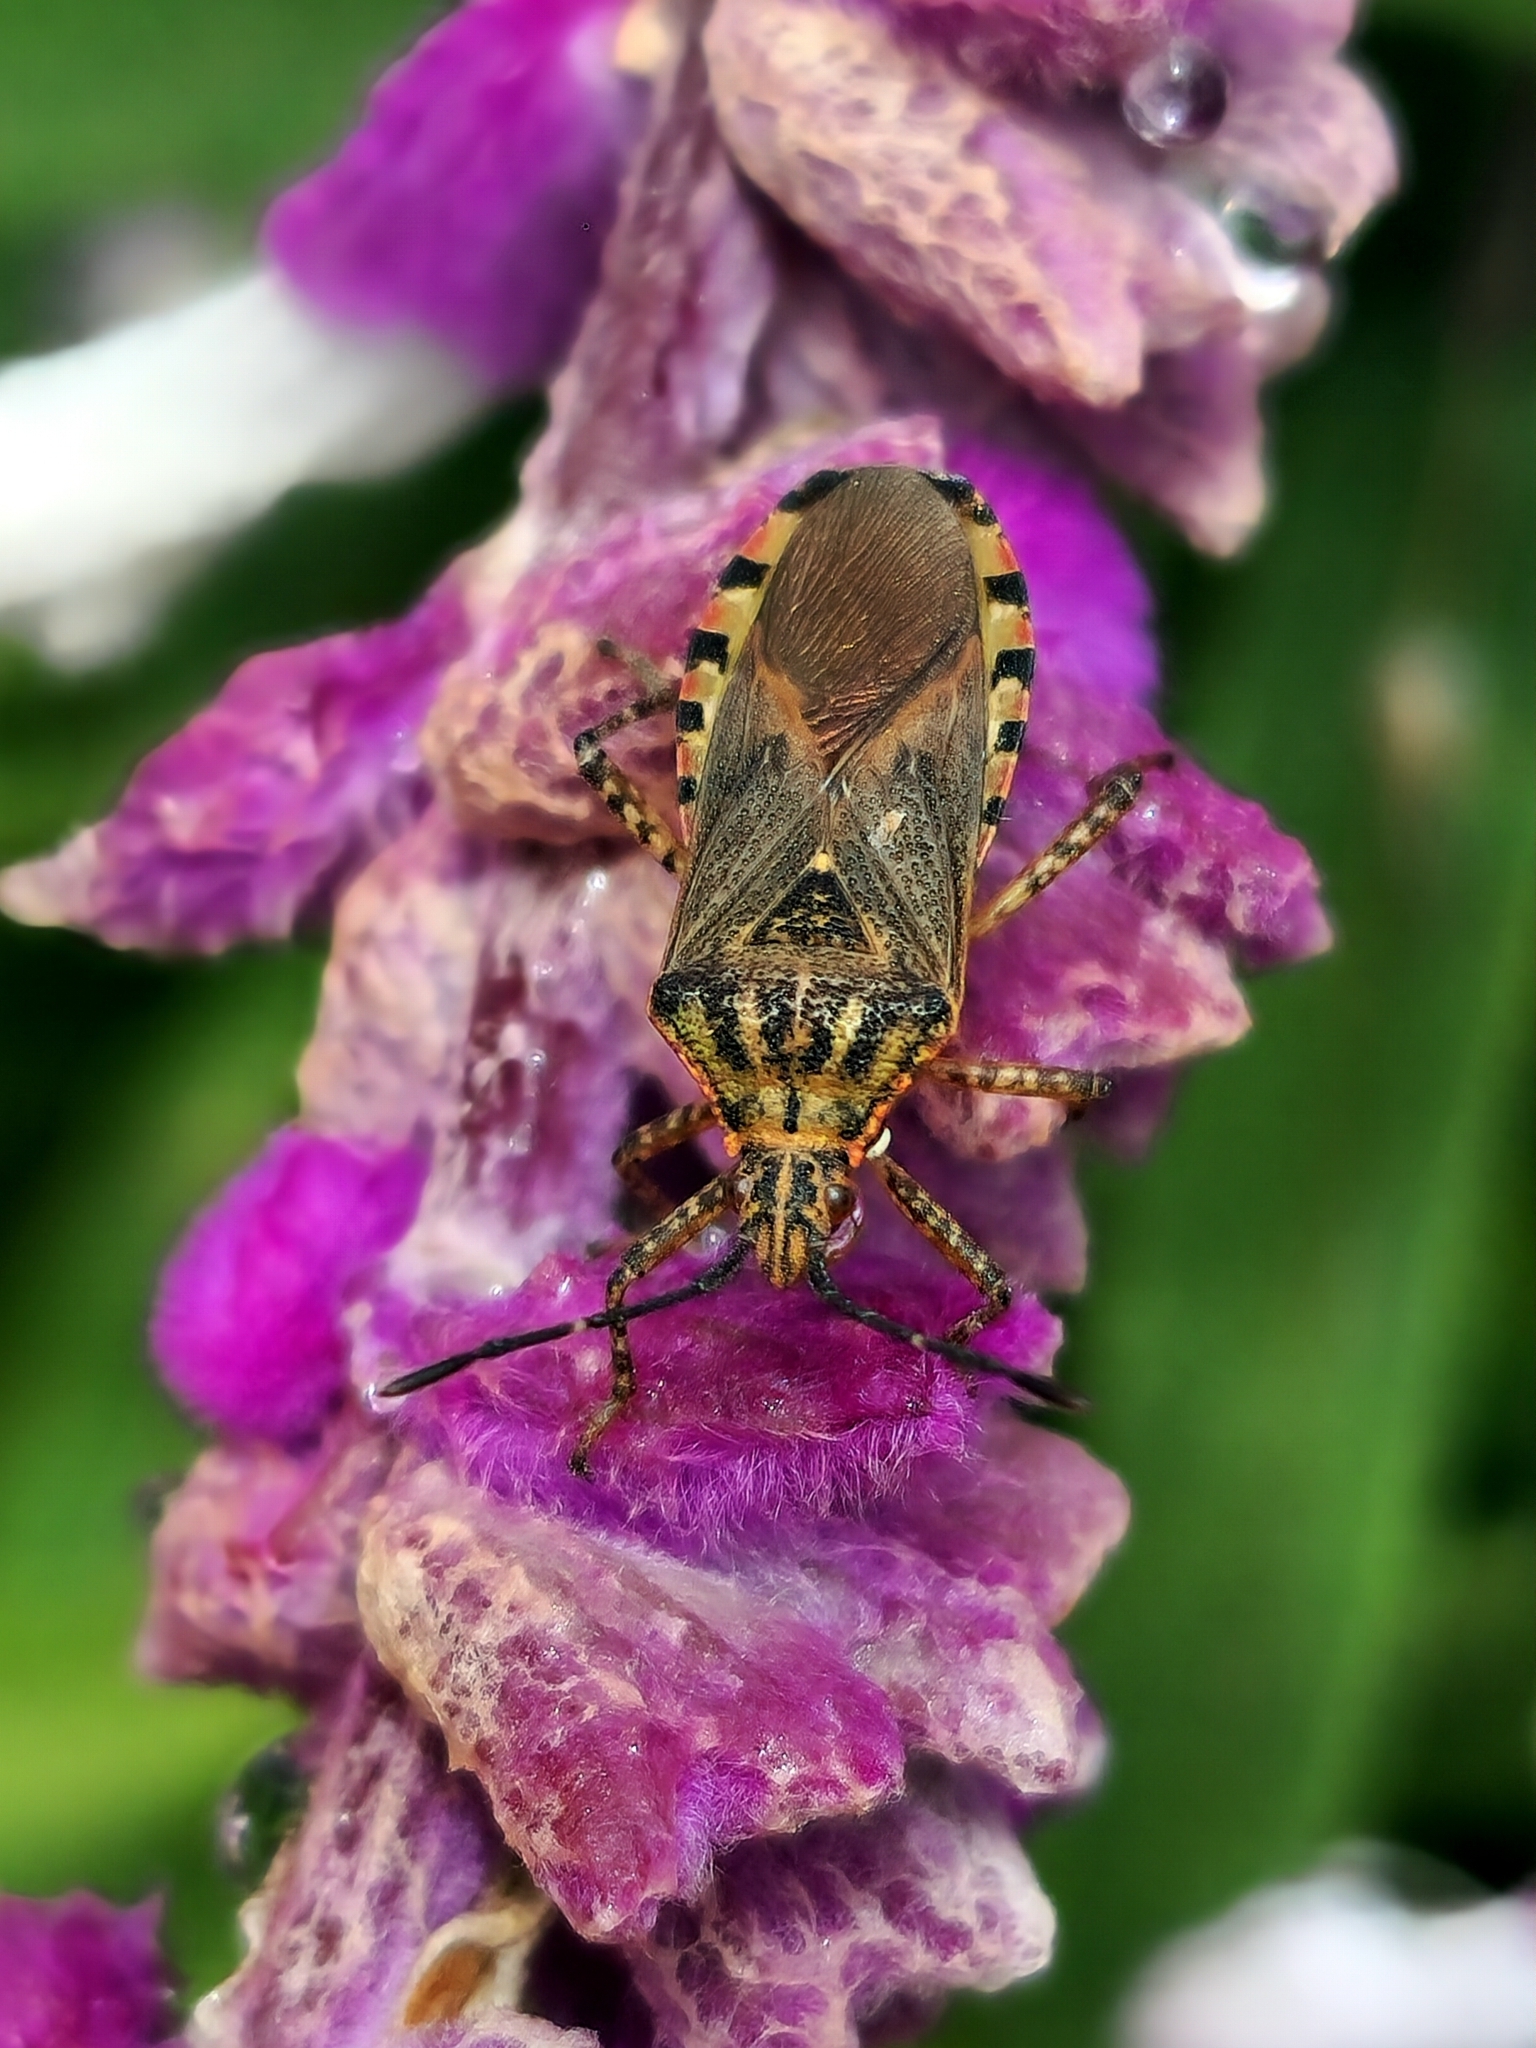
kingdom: Animalia
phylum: Arthropoda
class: Insecta
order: Hemiptera
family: Coreidae
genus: Acidomeria
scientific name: Acidomeria cincticornis
